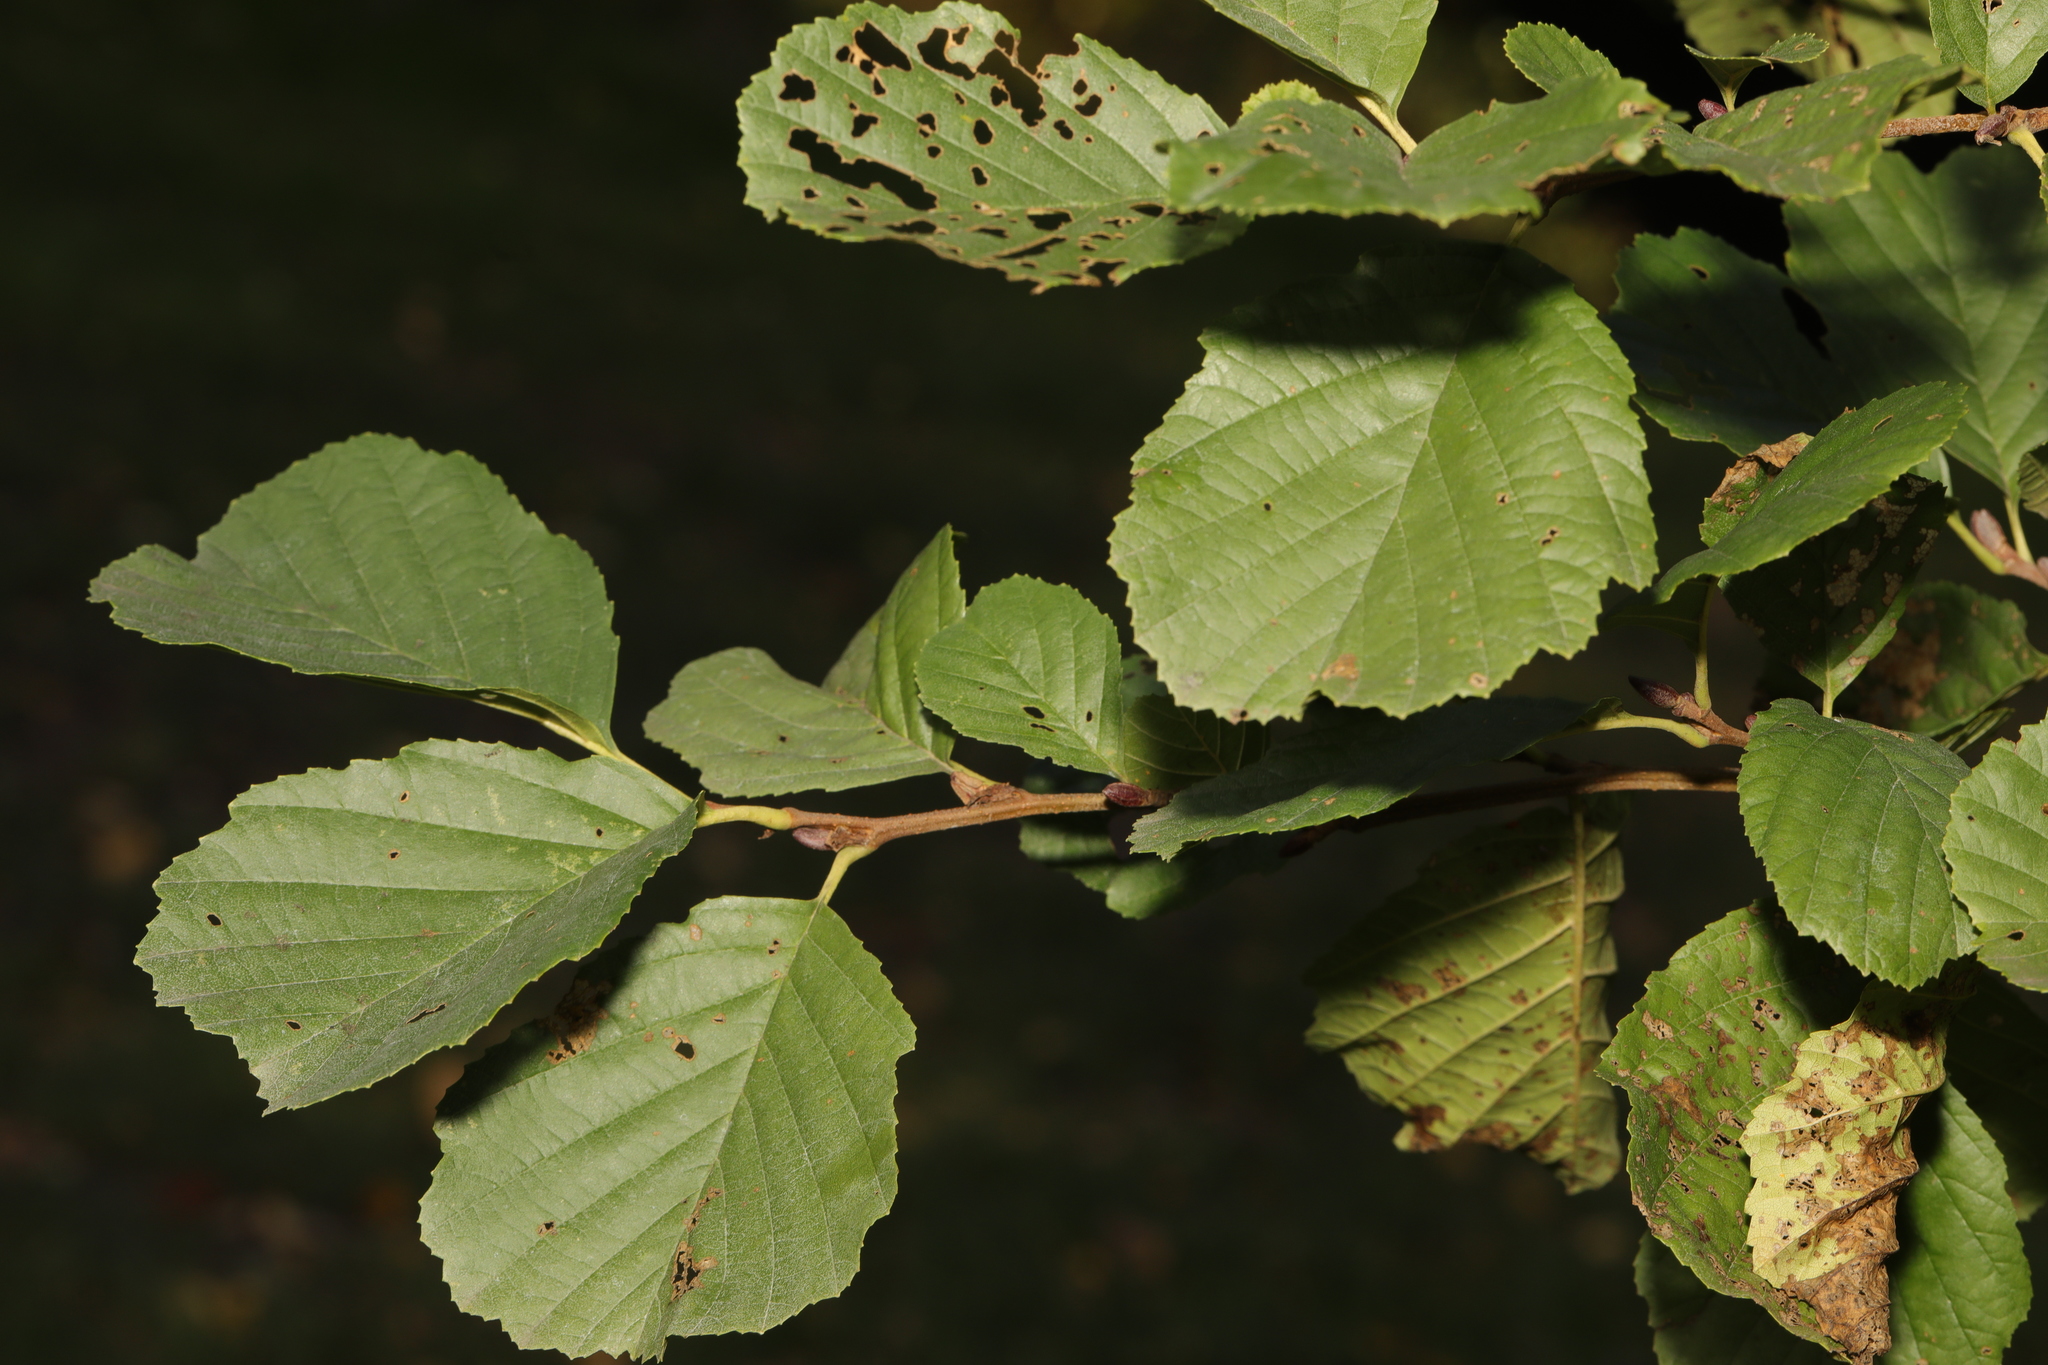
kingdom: Plantae
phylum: Tracheophyta
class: Magnoliopsida
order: Fagales
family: Betulaceae
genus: Alnus
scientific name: Alnus glutinosa
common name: Black alder
